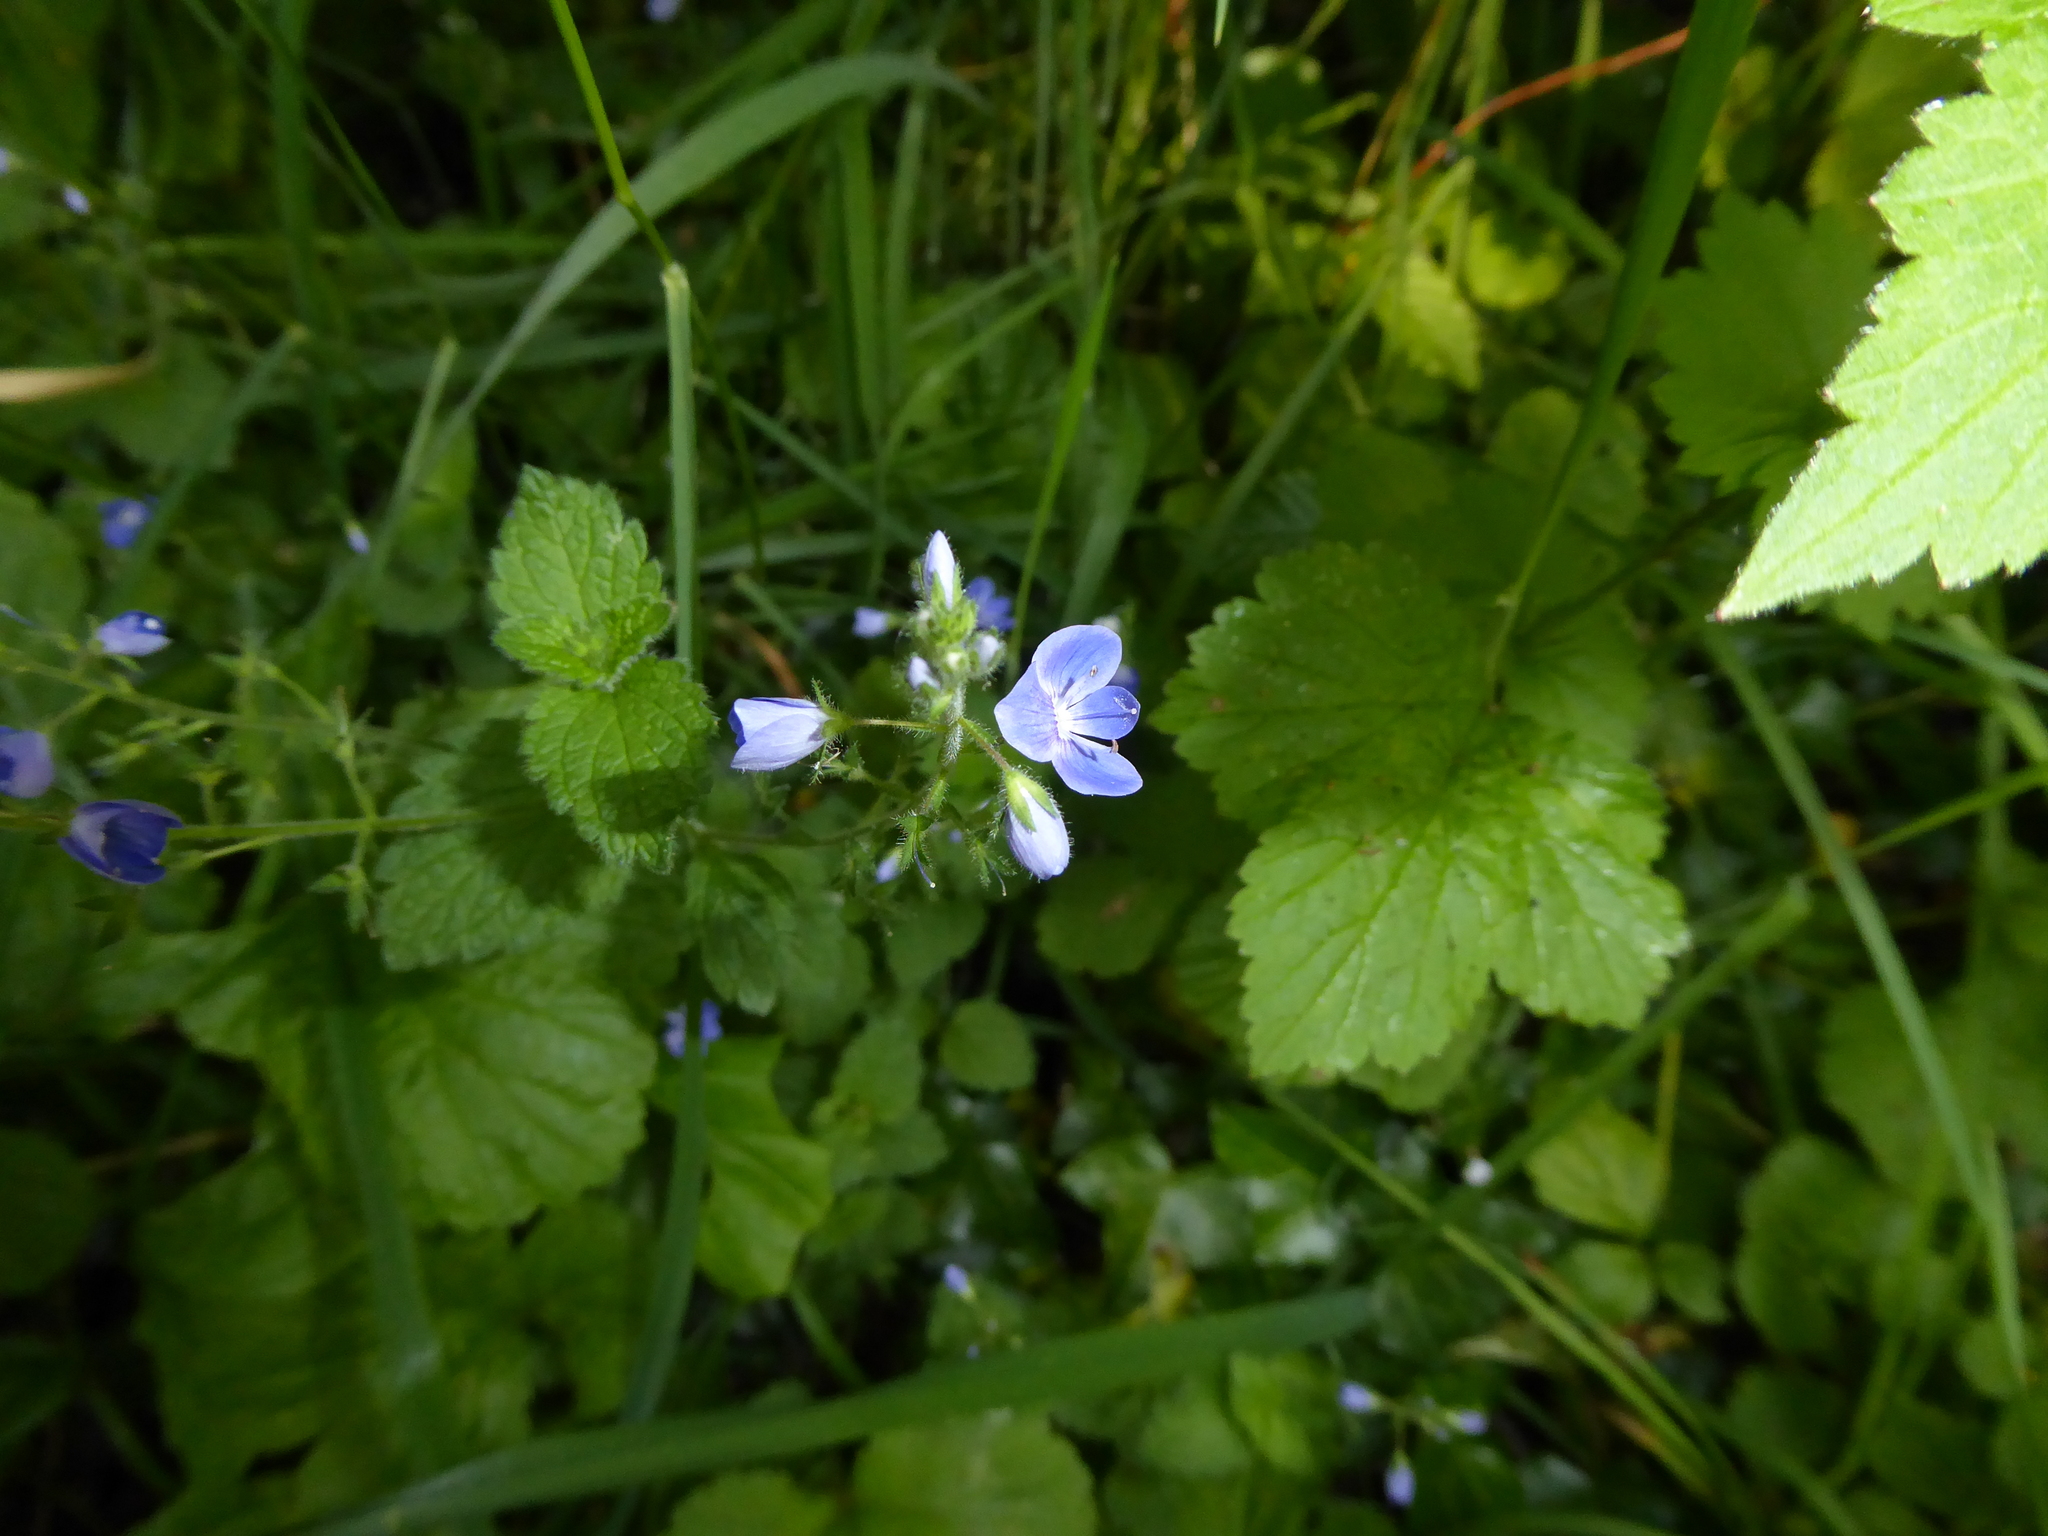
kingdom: Plantae
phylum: Tracheophyta
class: Magnoliopsida
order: Lamiales
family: Plantaginaceae
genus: Veronica
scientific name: Veronica chamaedrys
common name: Germander speedwell
